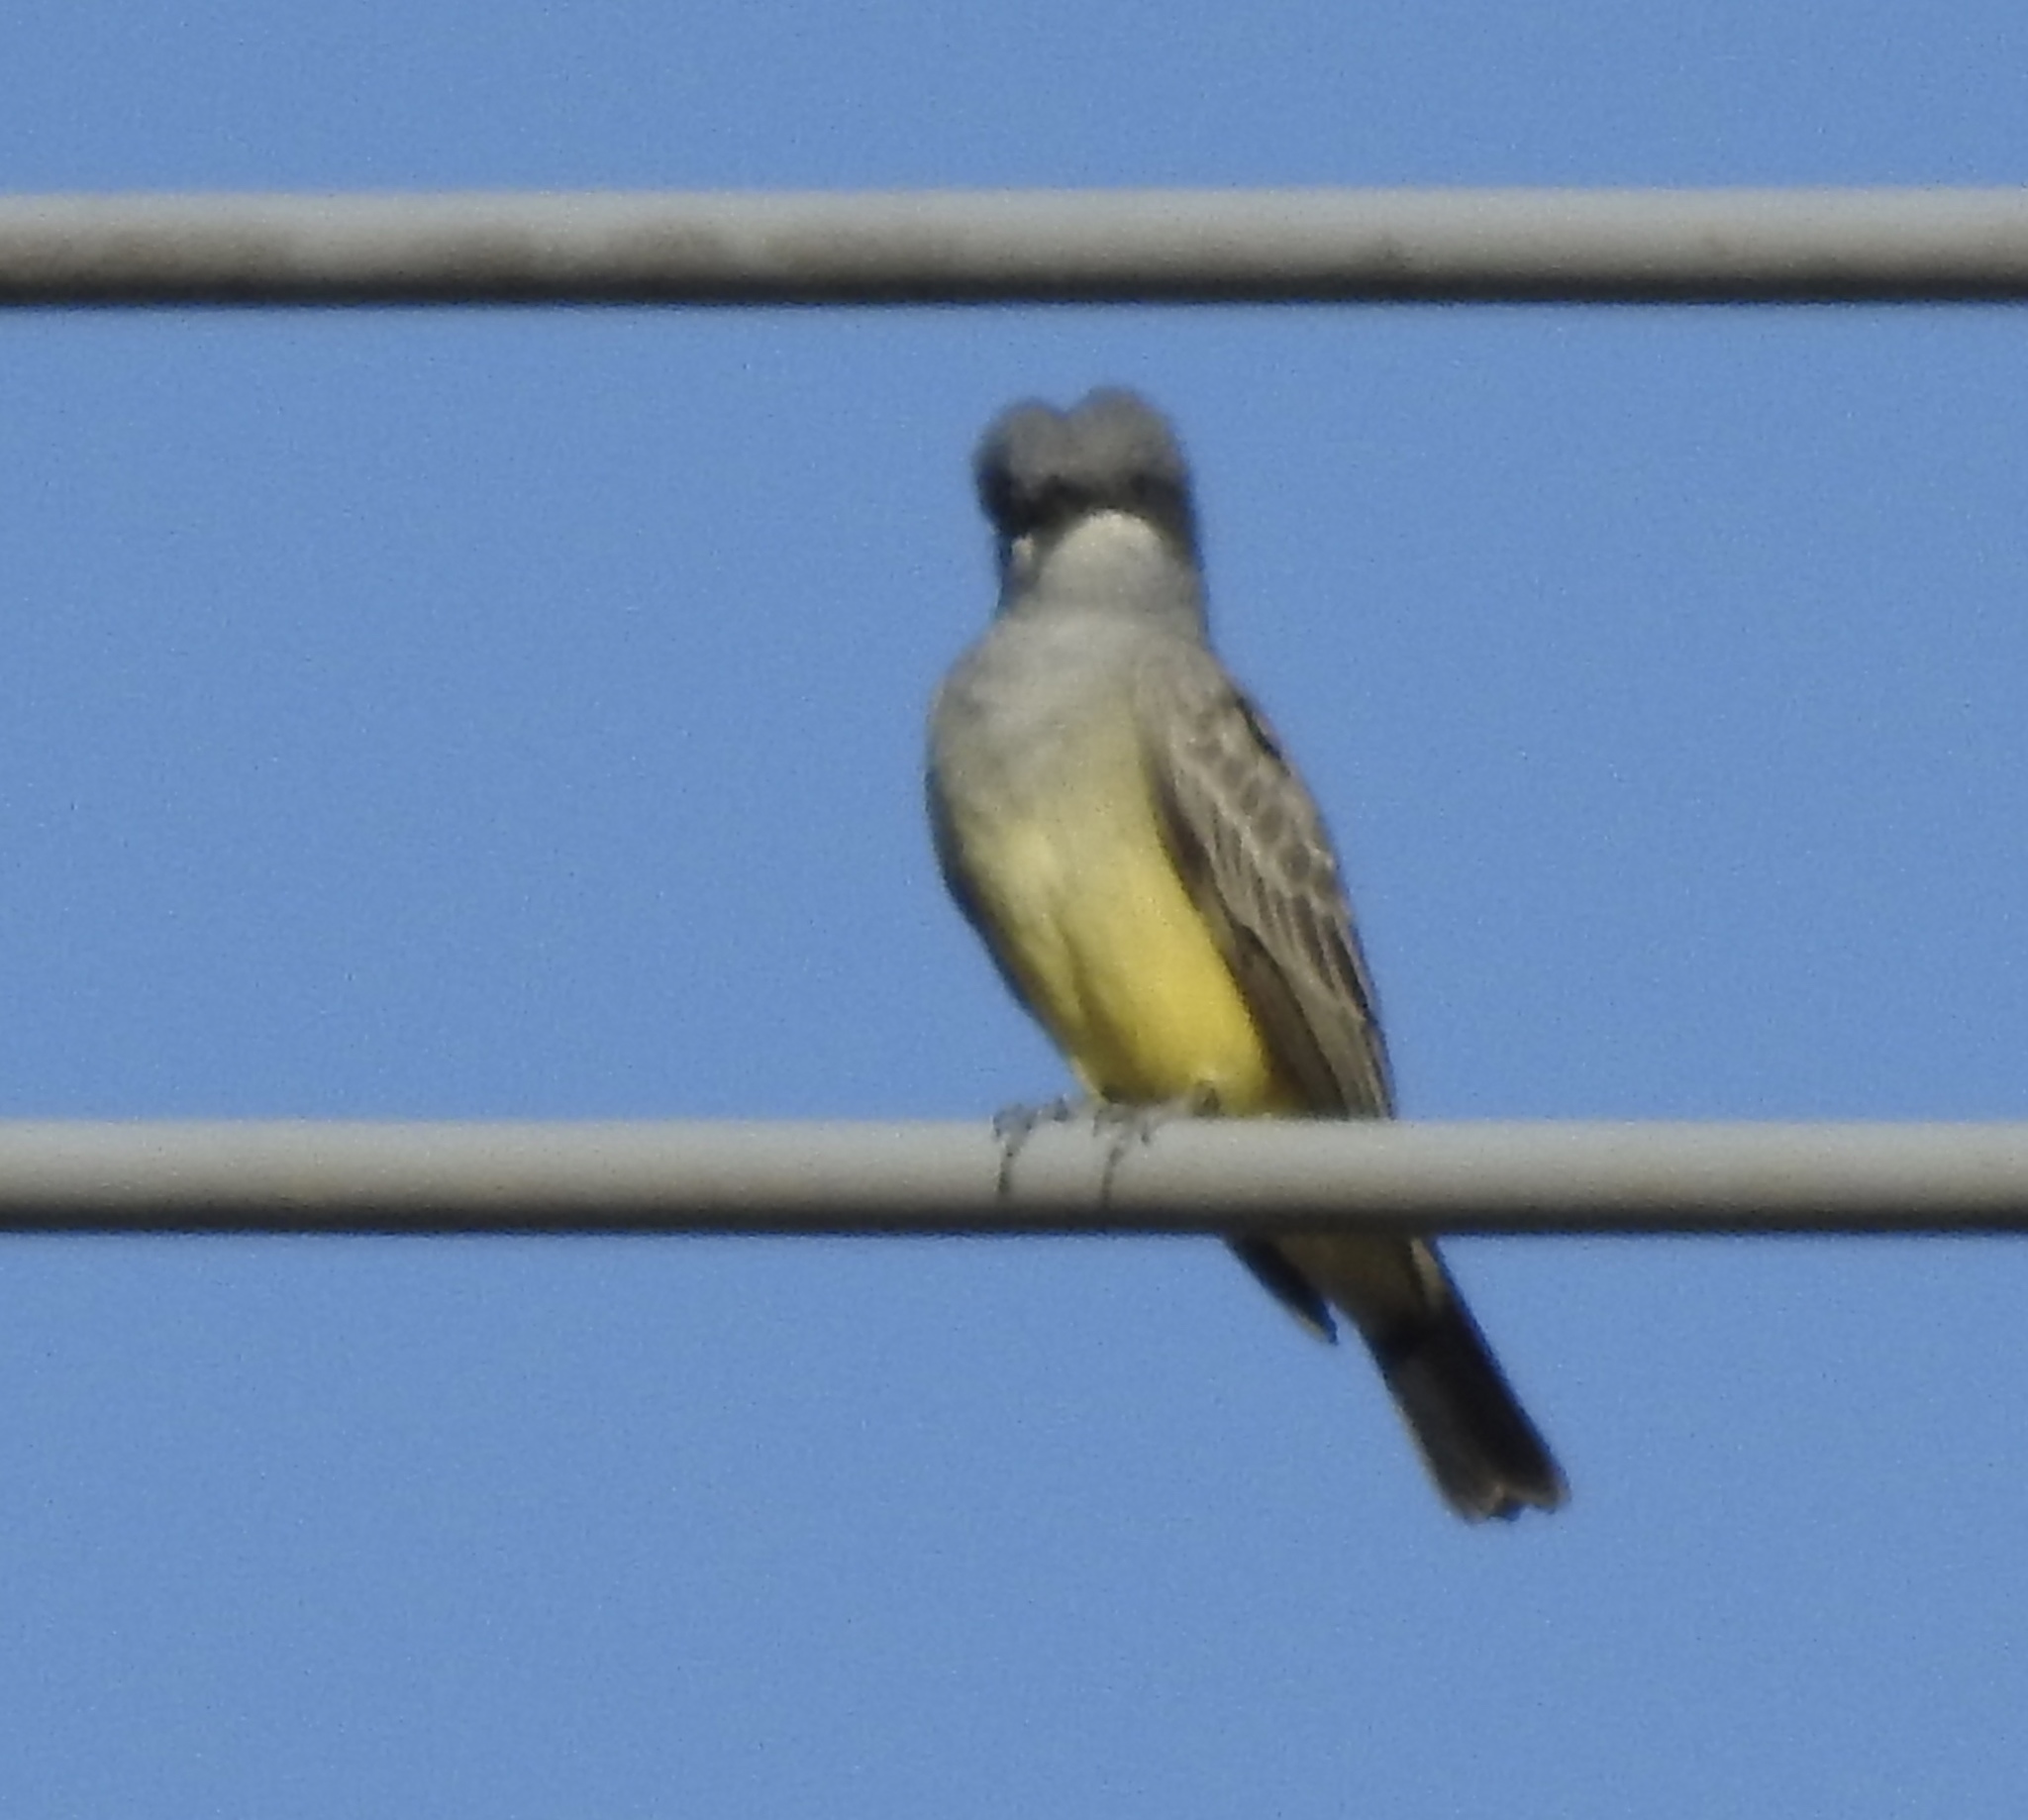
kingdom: Animalia
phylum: Chordata
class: Aves
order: Passeriformes
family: Tyrannidae
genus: Tyrannus
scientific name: Tyrannus vociferans
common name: Cassin's kingbird
